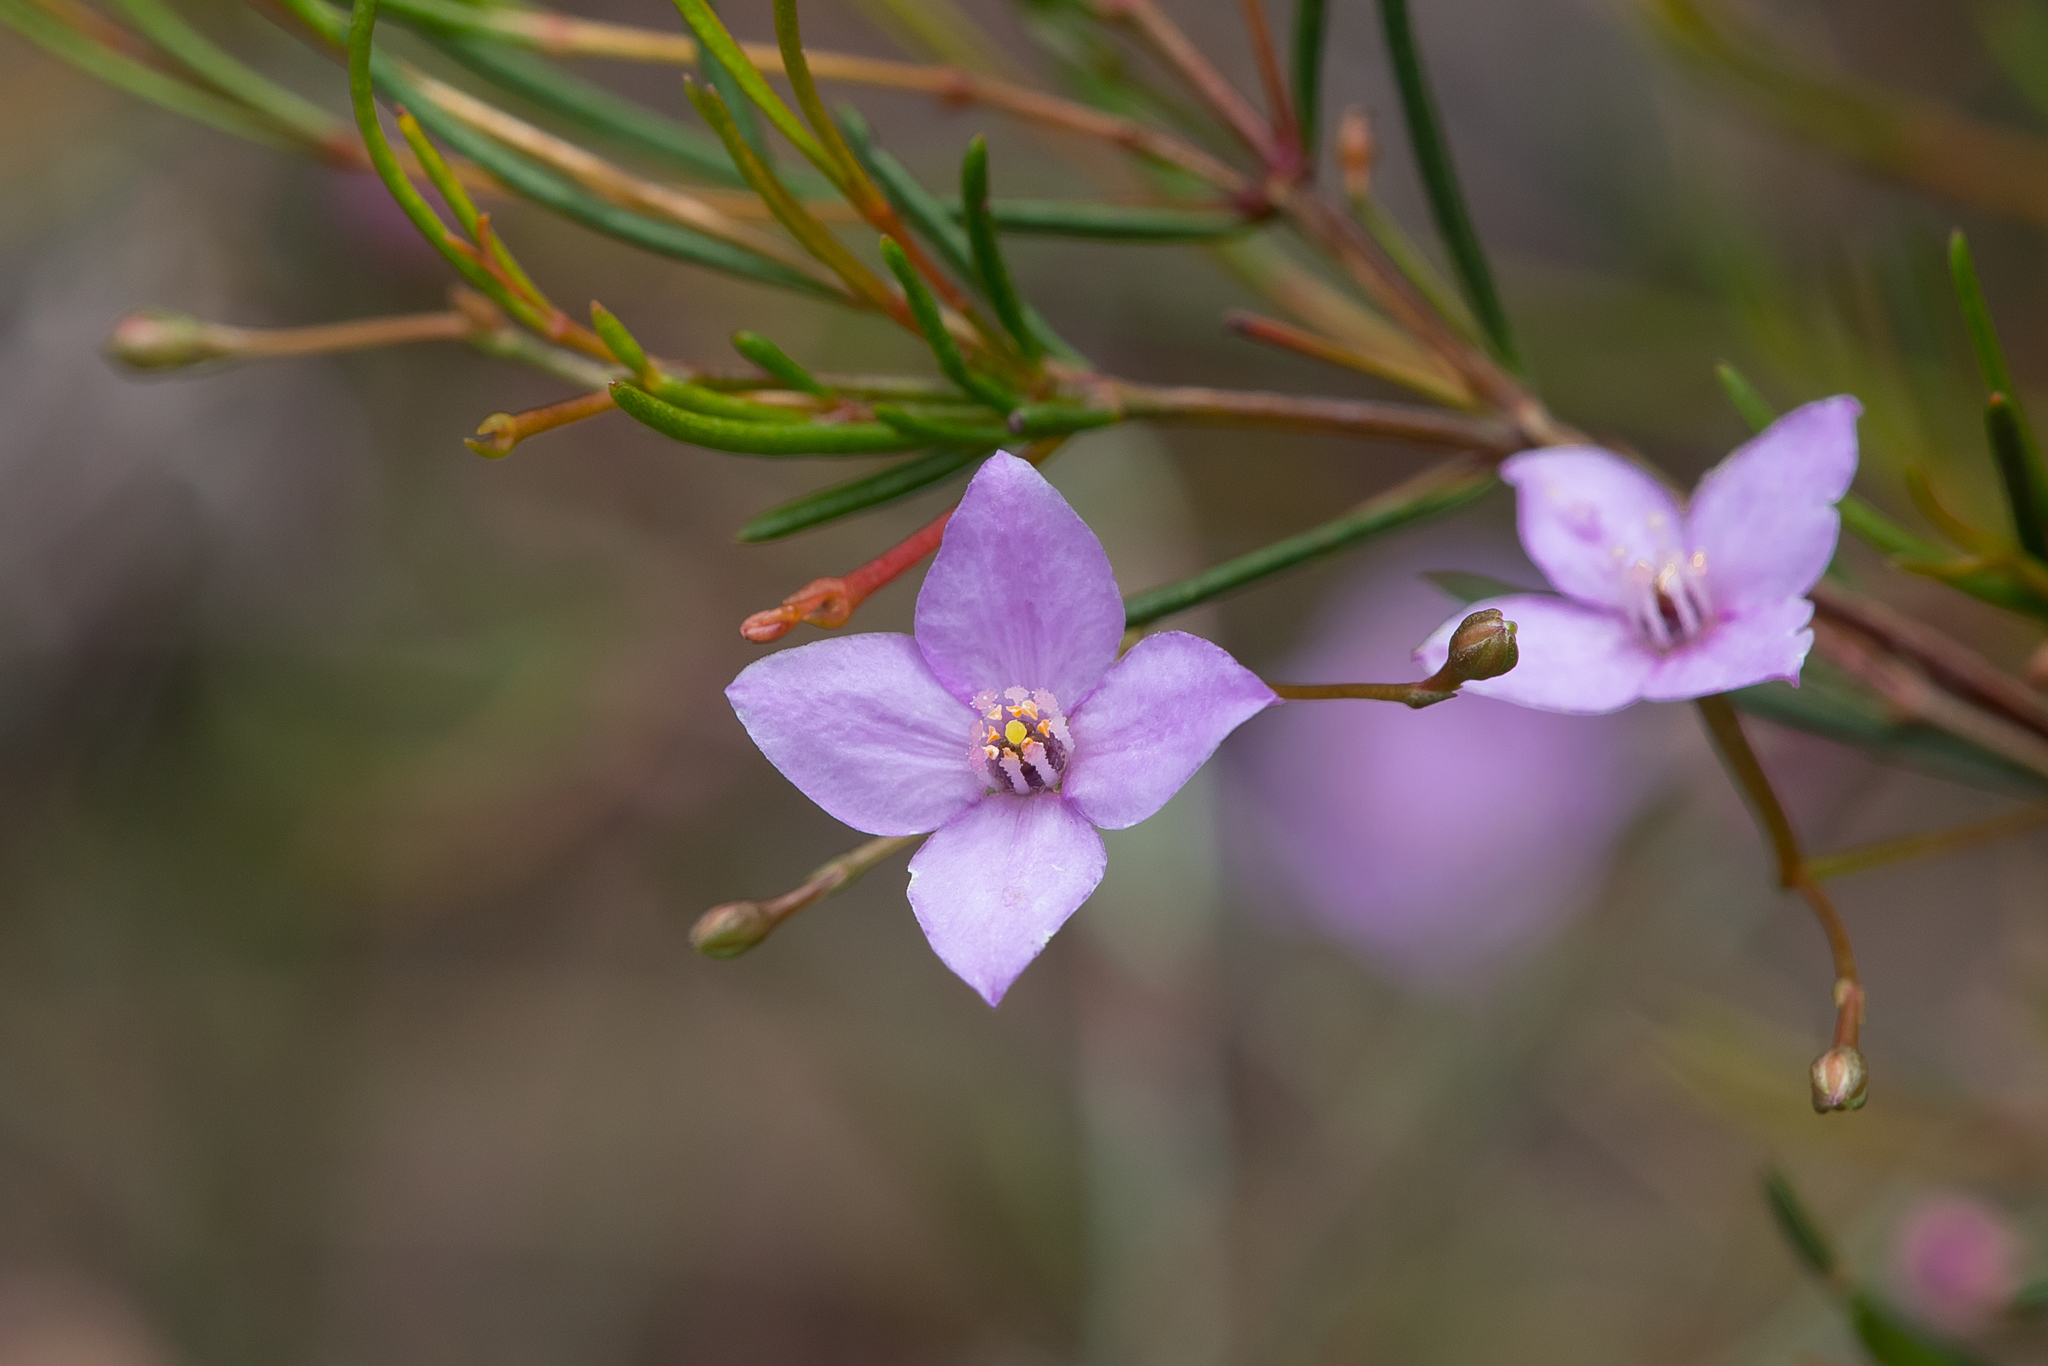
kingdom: Plantae
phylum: Tracheophyta
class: Magnoliopsida
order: Sapindales
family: Rutaceae
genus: Boronia
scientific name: Boronia filifolia
